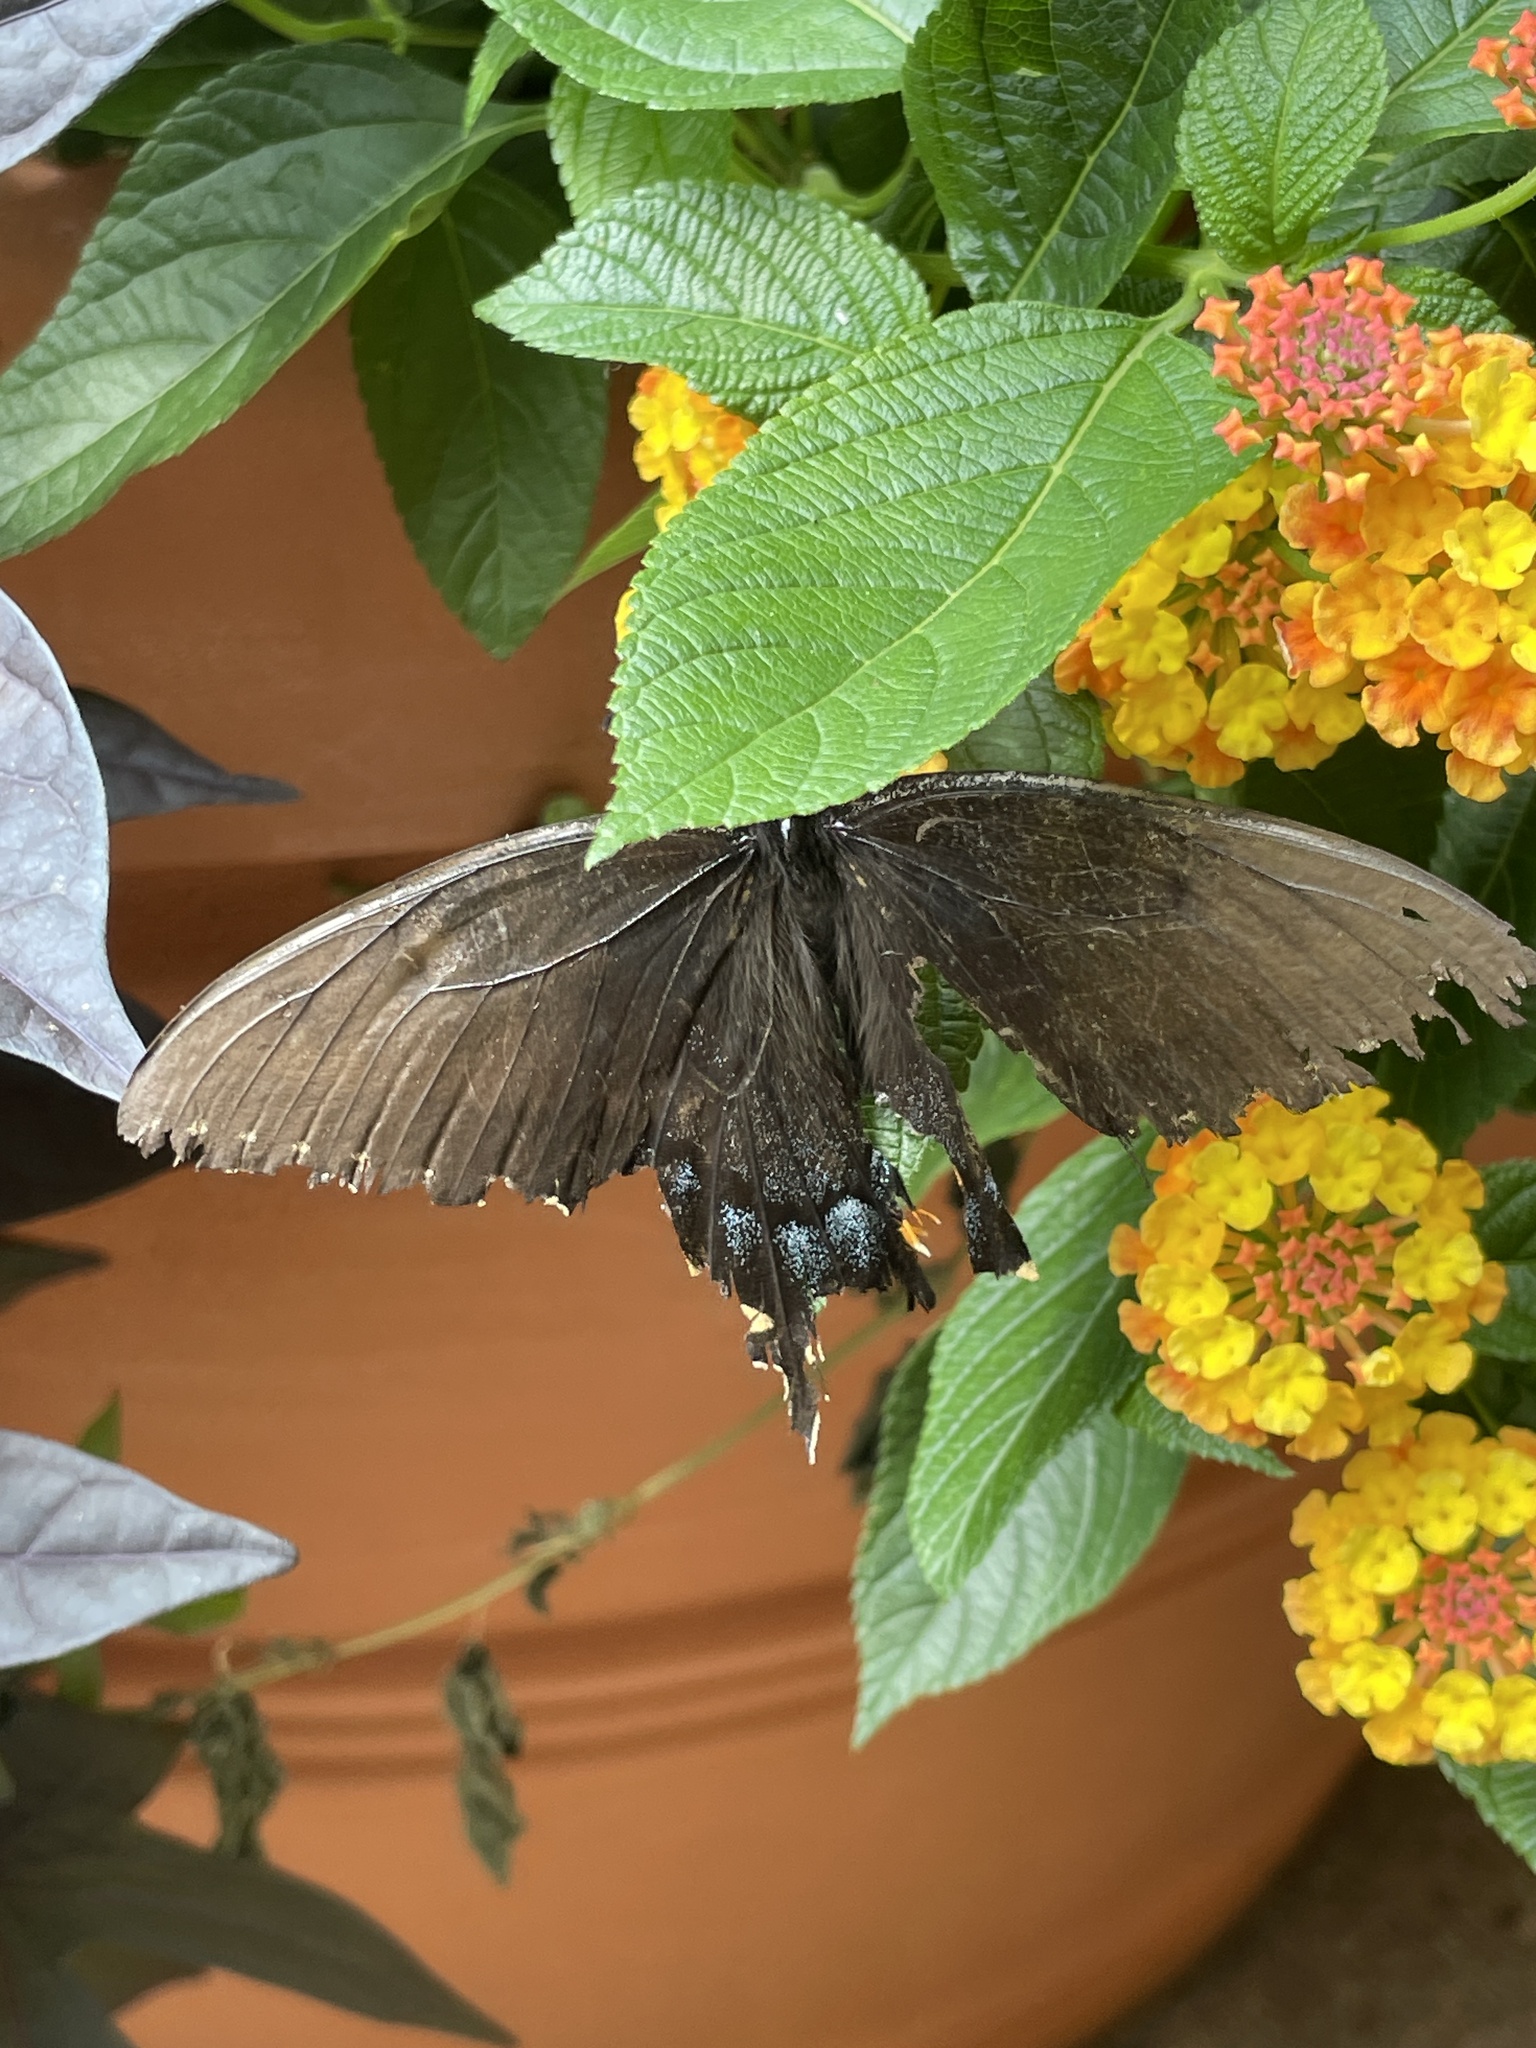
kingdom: Animalia
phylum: Arthropoda
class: Insecta
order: Lepidoptera
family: Papilionidae
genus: Papilio
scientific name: Papilio glaucus
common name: Tiger swallowtail
